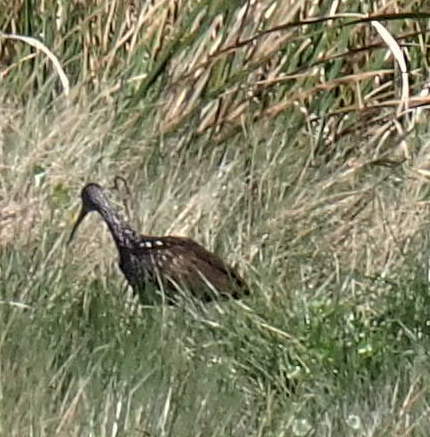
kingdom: Animalia
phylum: Chordata
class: Aves
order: Gruiformes
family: Aramidae
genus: Aramus
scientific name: Aramus guarauna
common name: Limpkin
